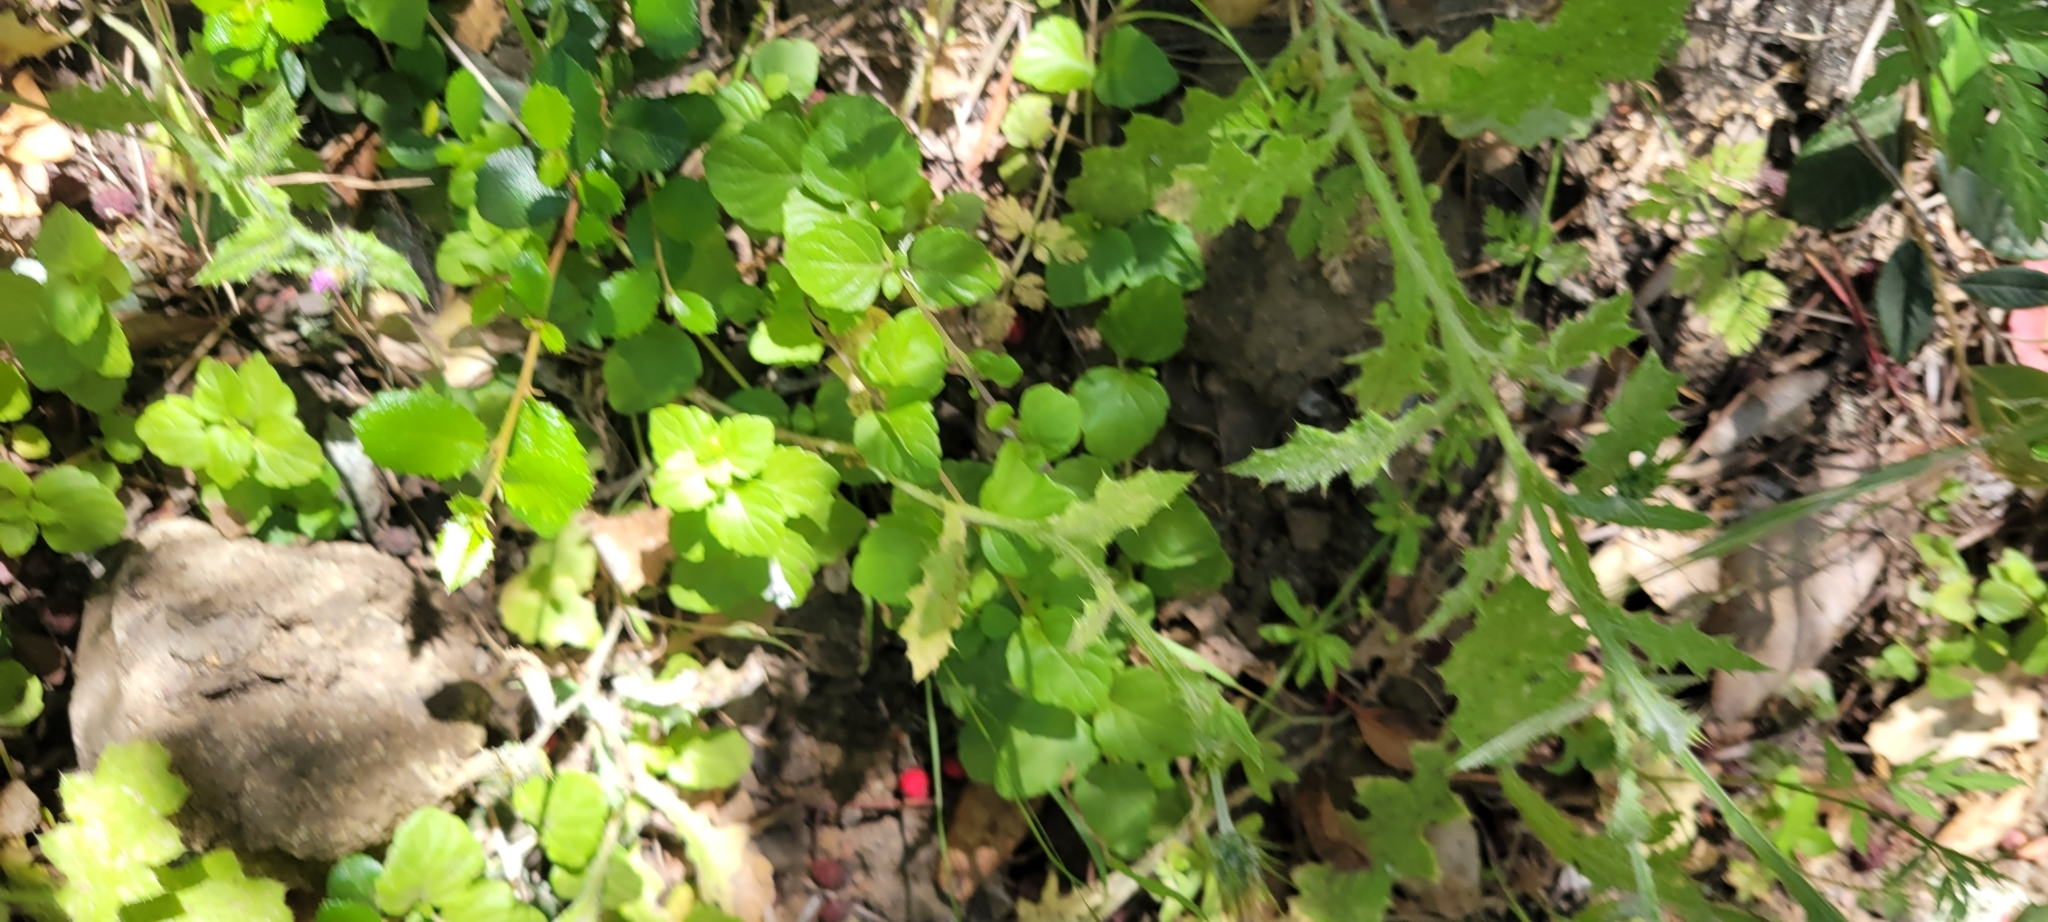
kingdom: Plantae
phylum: Tracheophyta
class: Magnoliopsida
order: Lamiales
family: Lamiaceae
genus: Micromeria
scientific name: Micromeria douglasii
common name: Yerba buena
